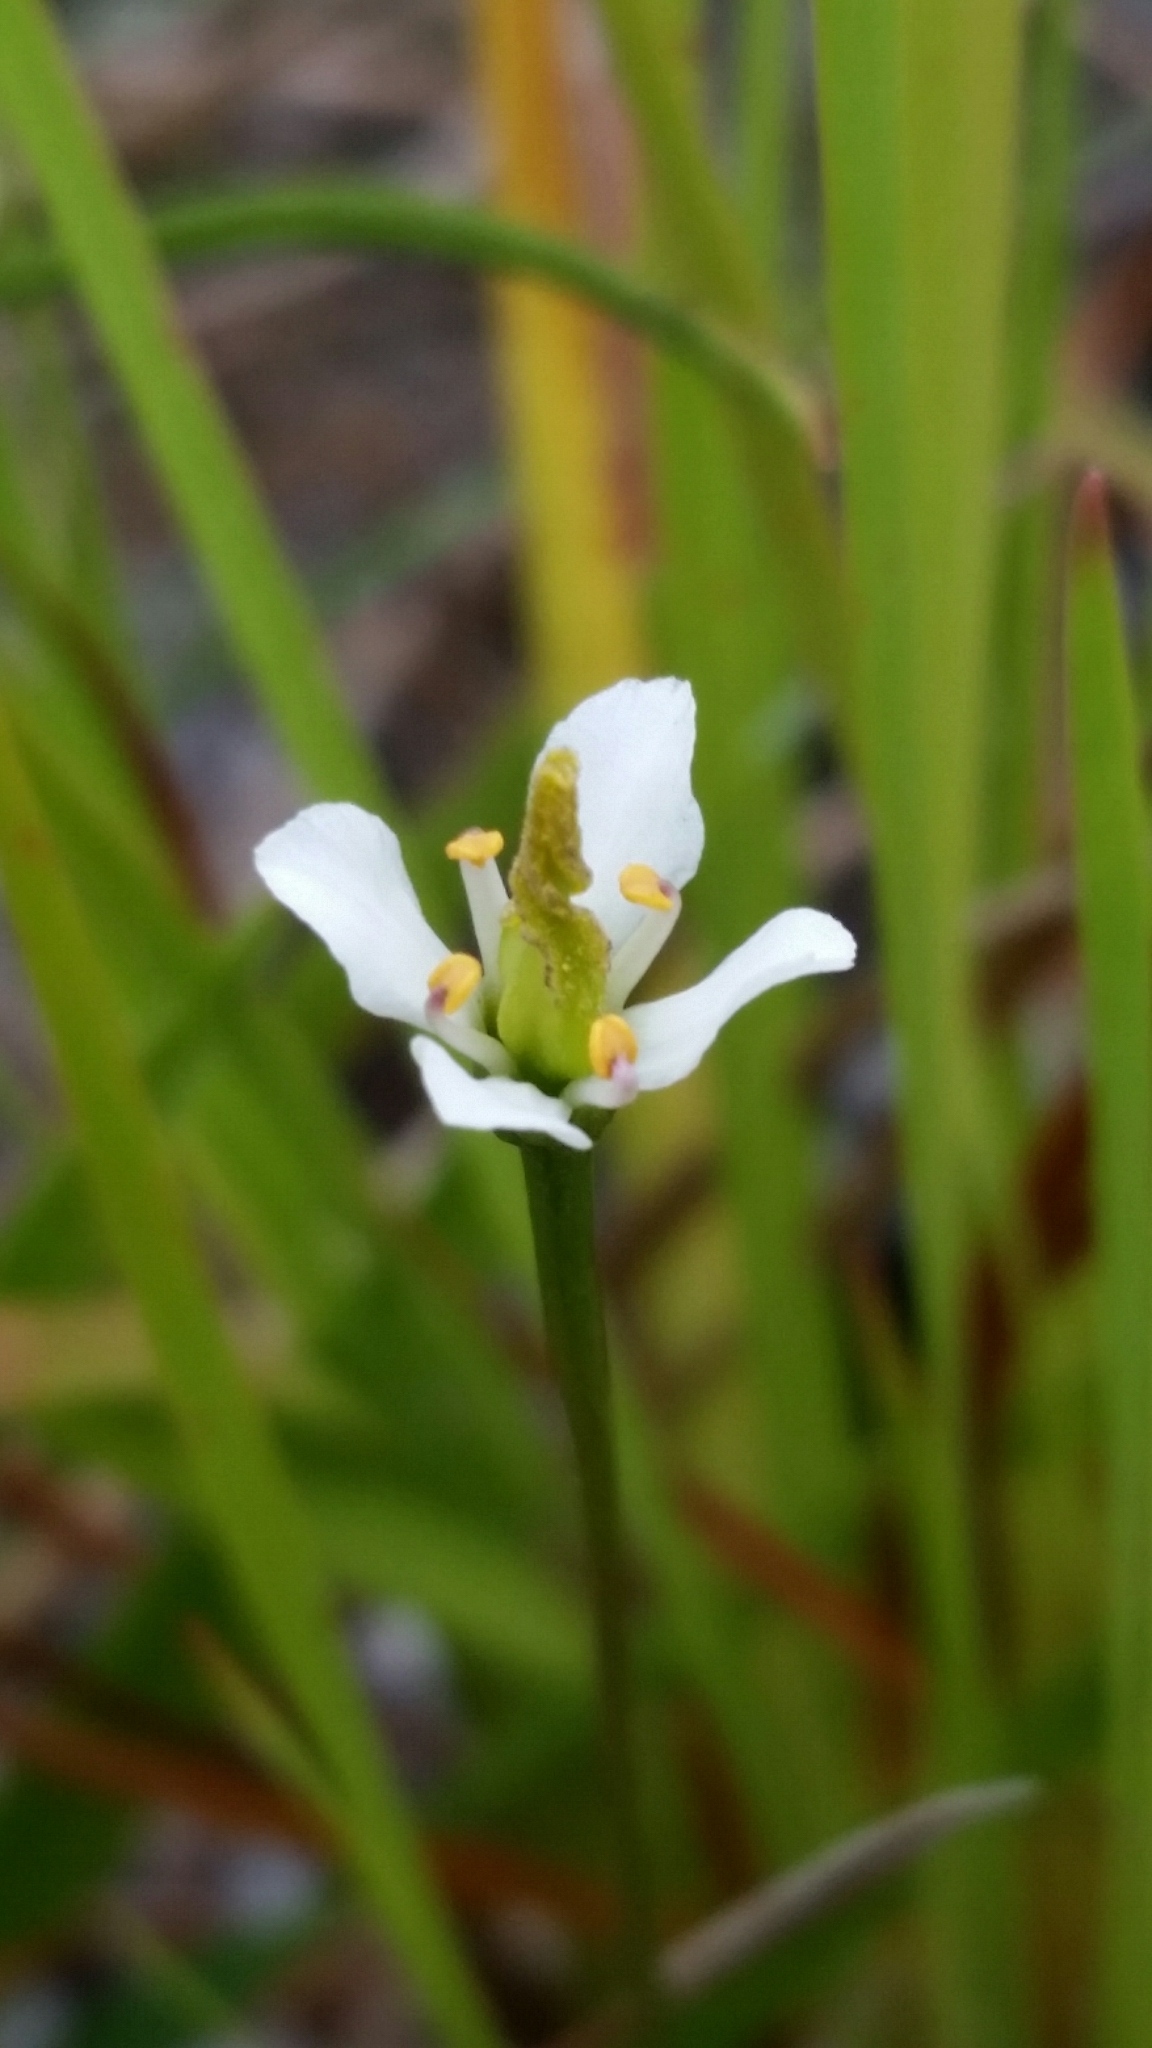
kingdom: Plantae
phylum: Tracheophyta
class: Magnoliopsida
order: Gentianales
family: Gentianaceae
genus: Bartonia
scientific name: Bartonia verna
